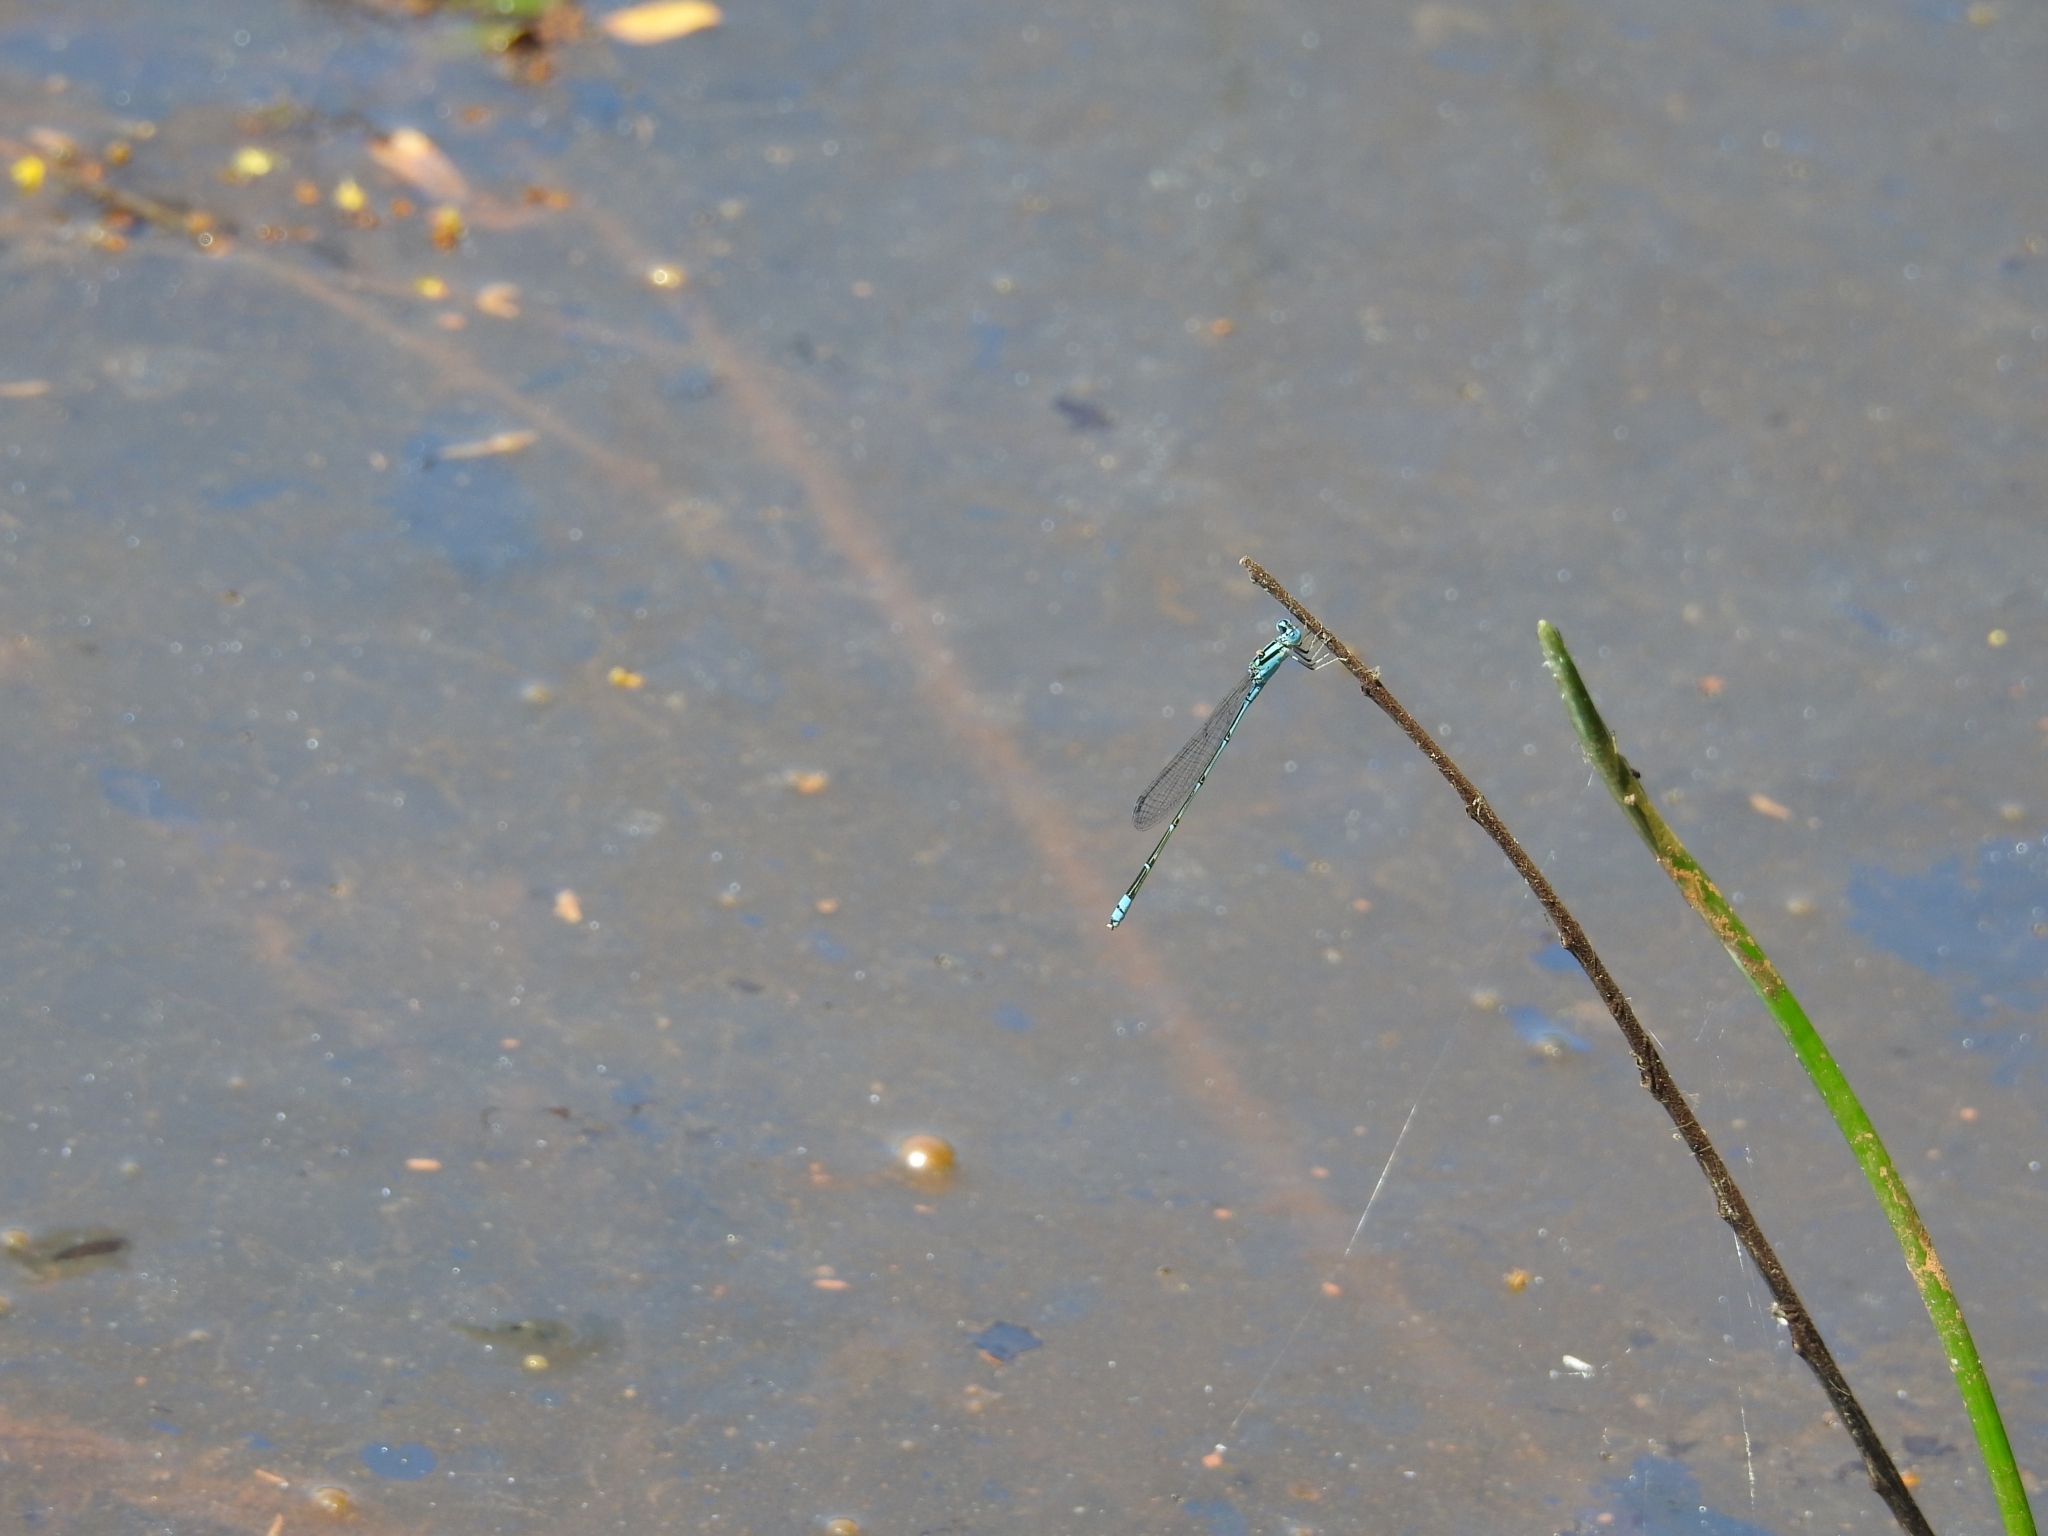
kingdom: Animalia
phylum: Arthropoda
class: Insecta
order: Odonata
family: Coenagrionidae
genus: Pseudagrion
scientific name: Pseudagrion microcephalum
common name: Blue riverdamsel
